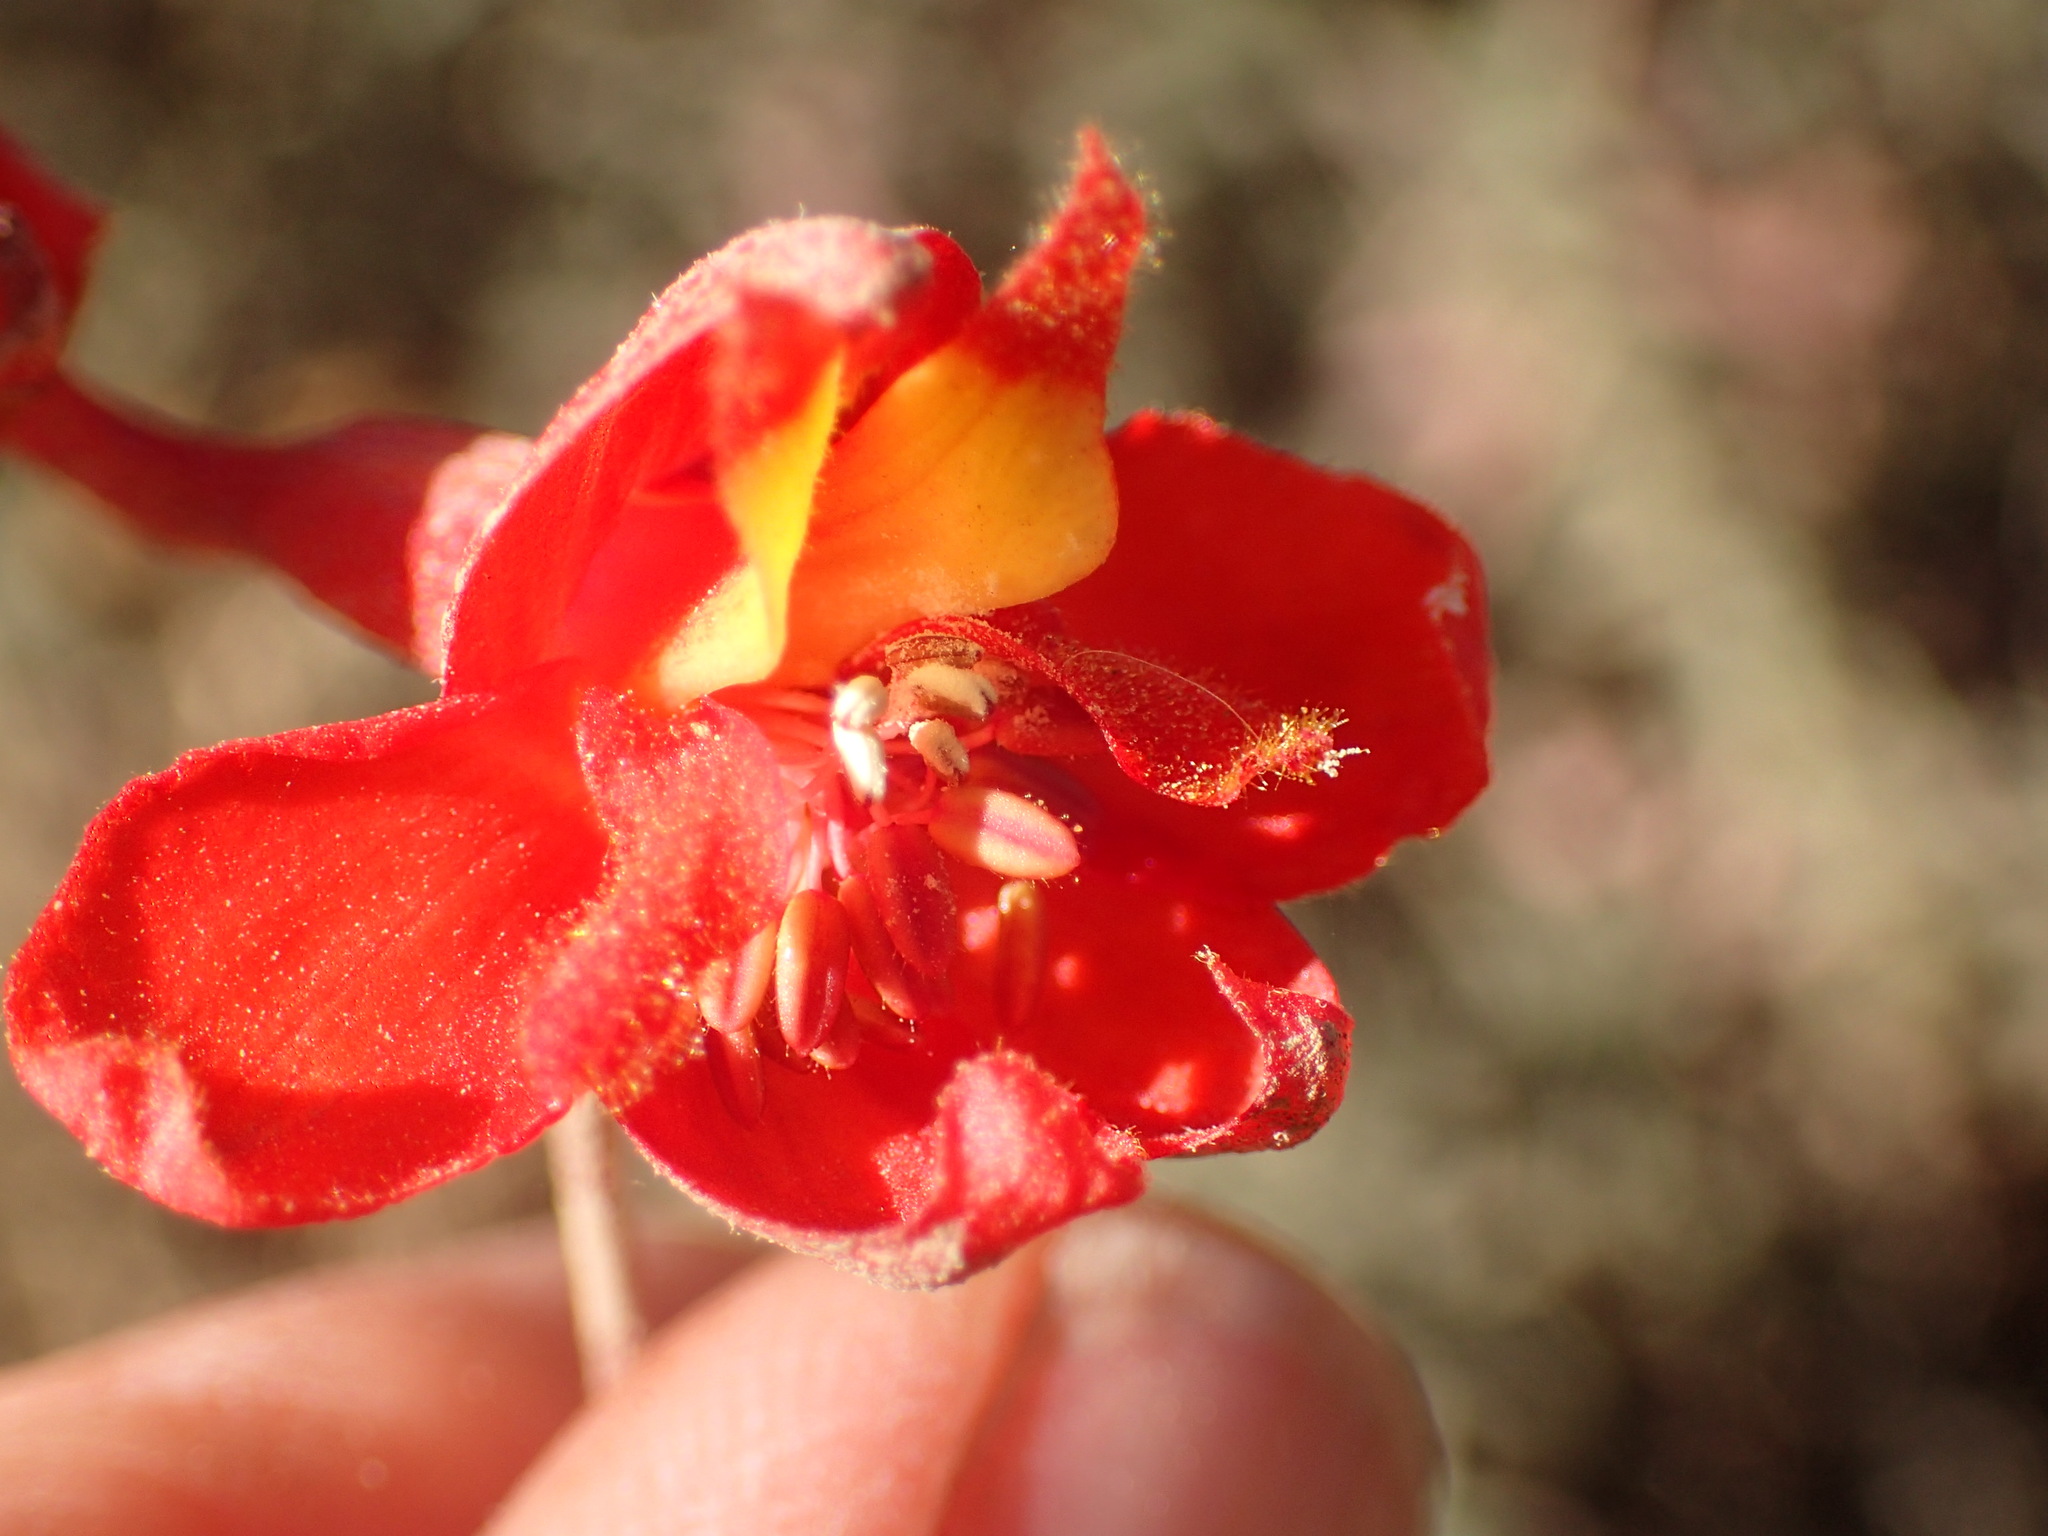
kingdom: Plantae
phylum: Tracheophyta
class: Magnoliopsida
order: Ranunculales
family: Ranunculaceae
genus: Delphinium
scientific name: Delphinium cardinale
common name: Scarlet larkspur
